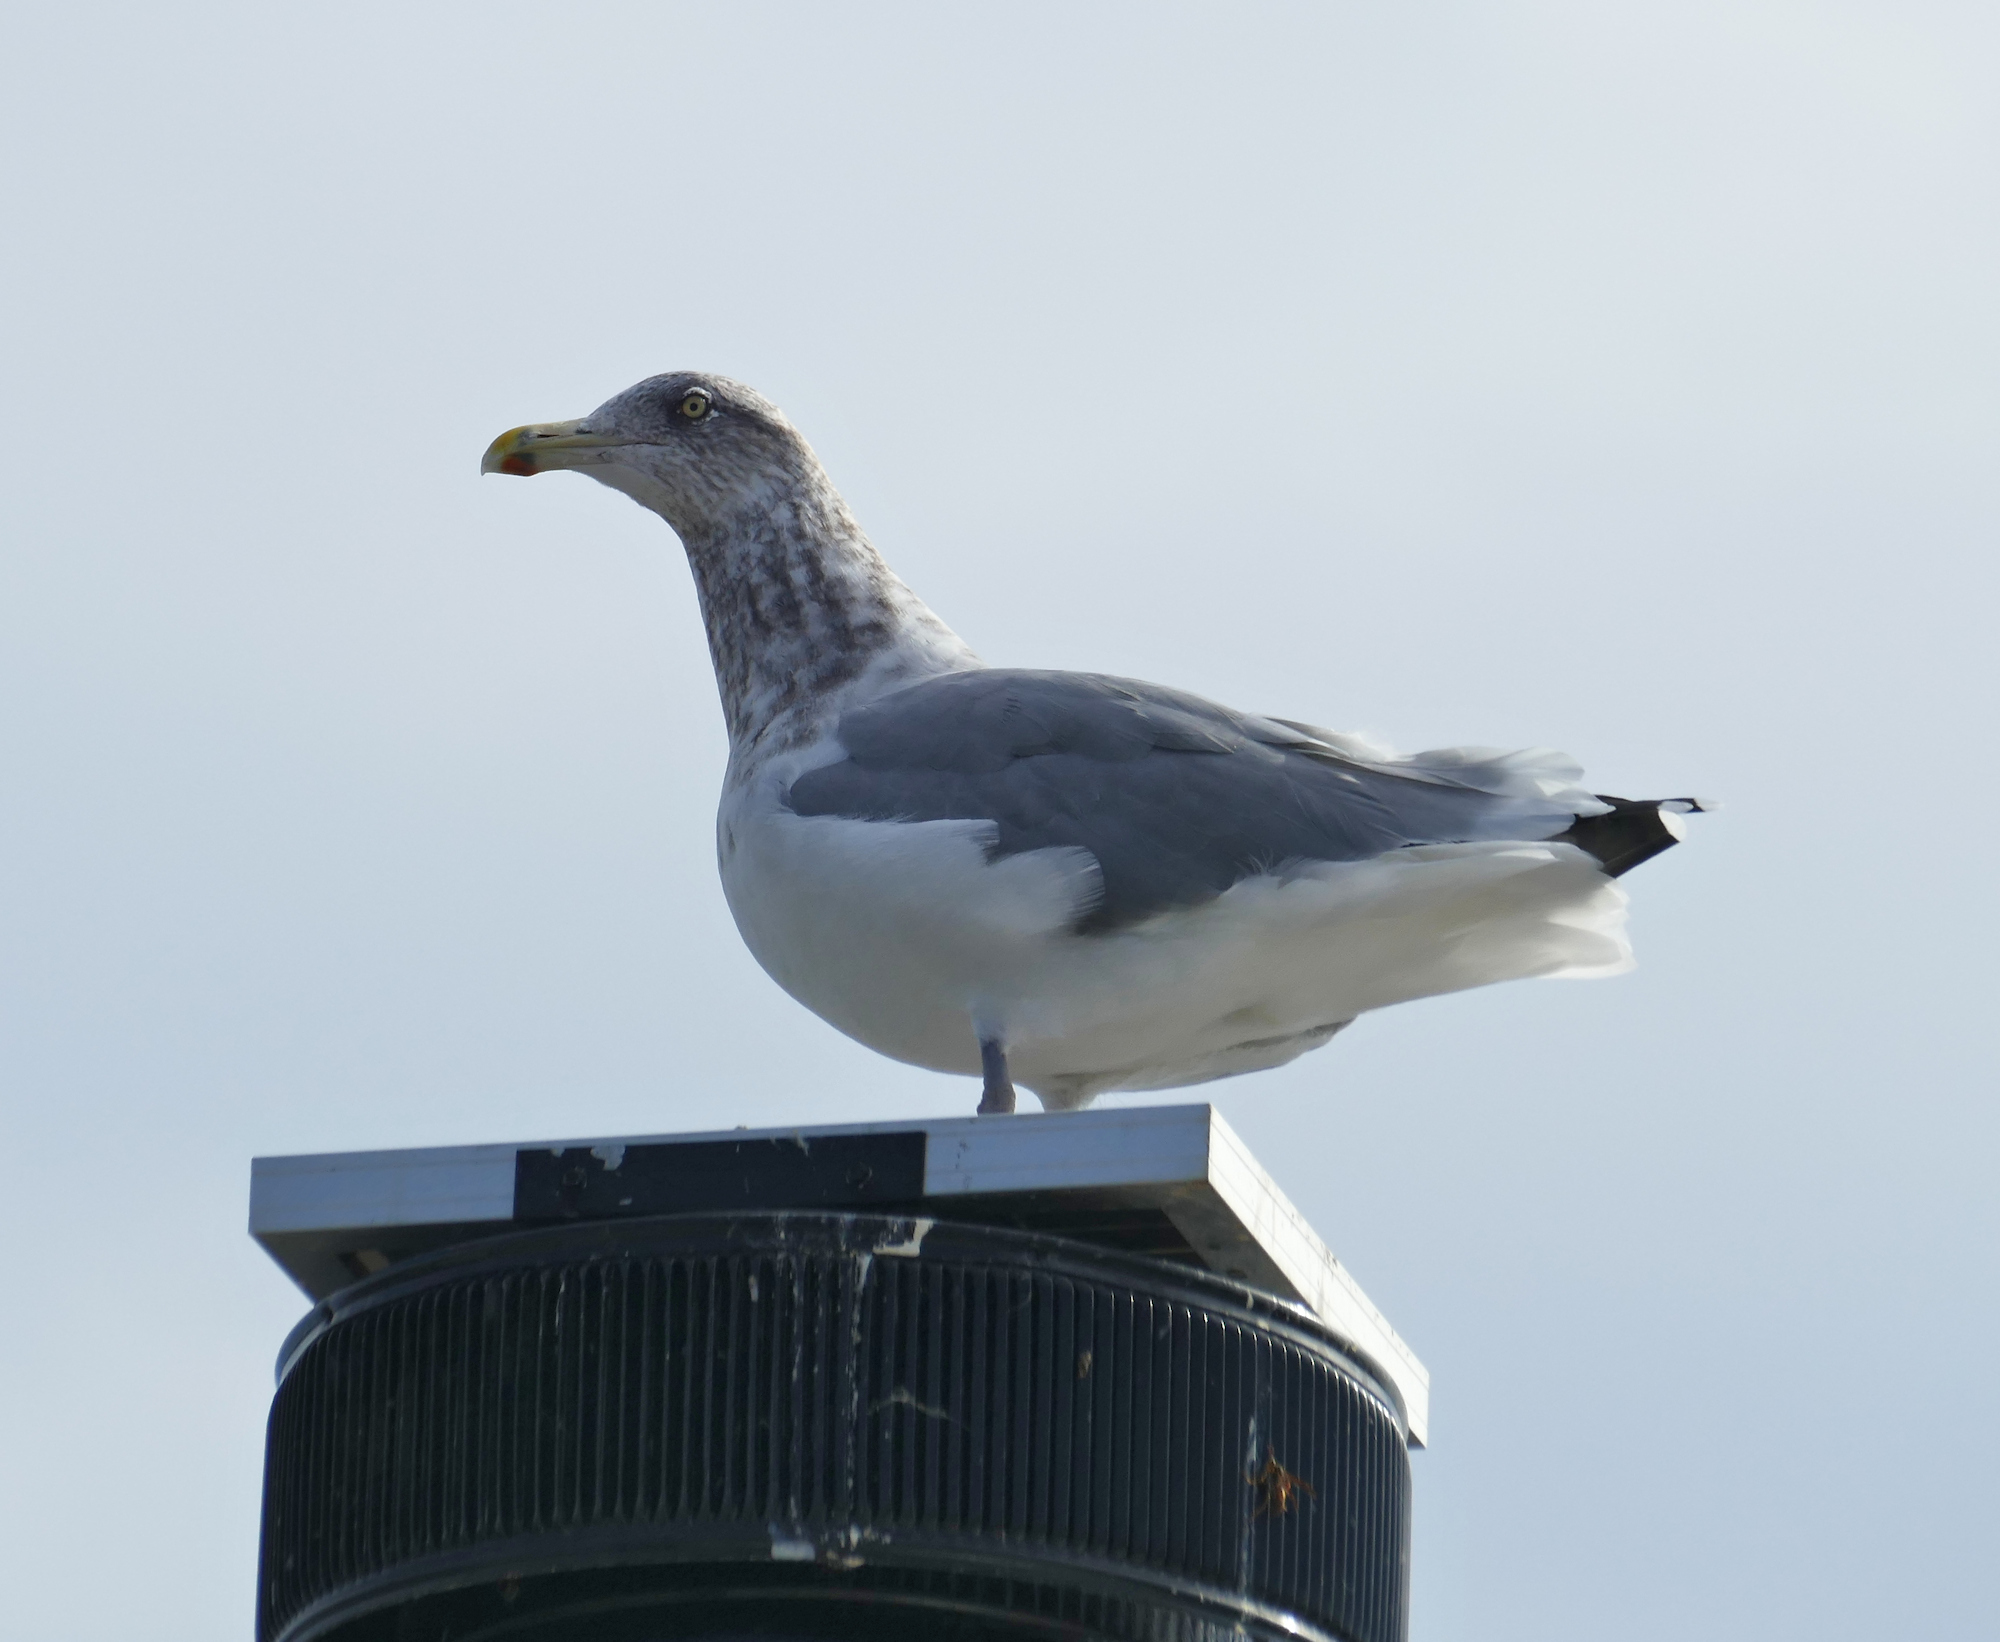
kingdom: Animalia
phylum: Chordata
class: Aves
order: Charadriiformes
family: Laridae
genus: Larus
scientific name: Larus argentatus
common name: Herring gull
